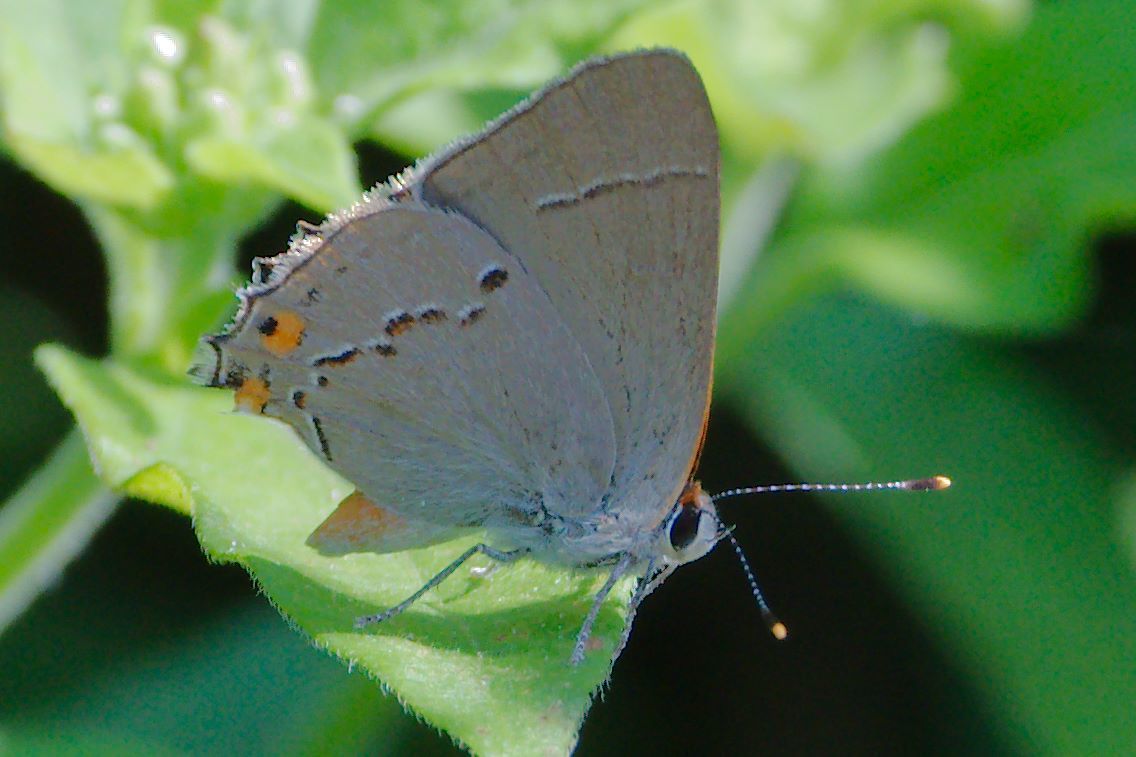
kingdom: Animalia
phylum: Arthropoda
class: Insecta
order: Lepidoptera
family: Lycaenidae
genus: Strymon
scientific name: Strymon melinus
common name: Gray hairstreak
